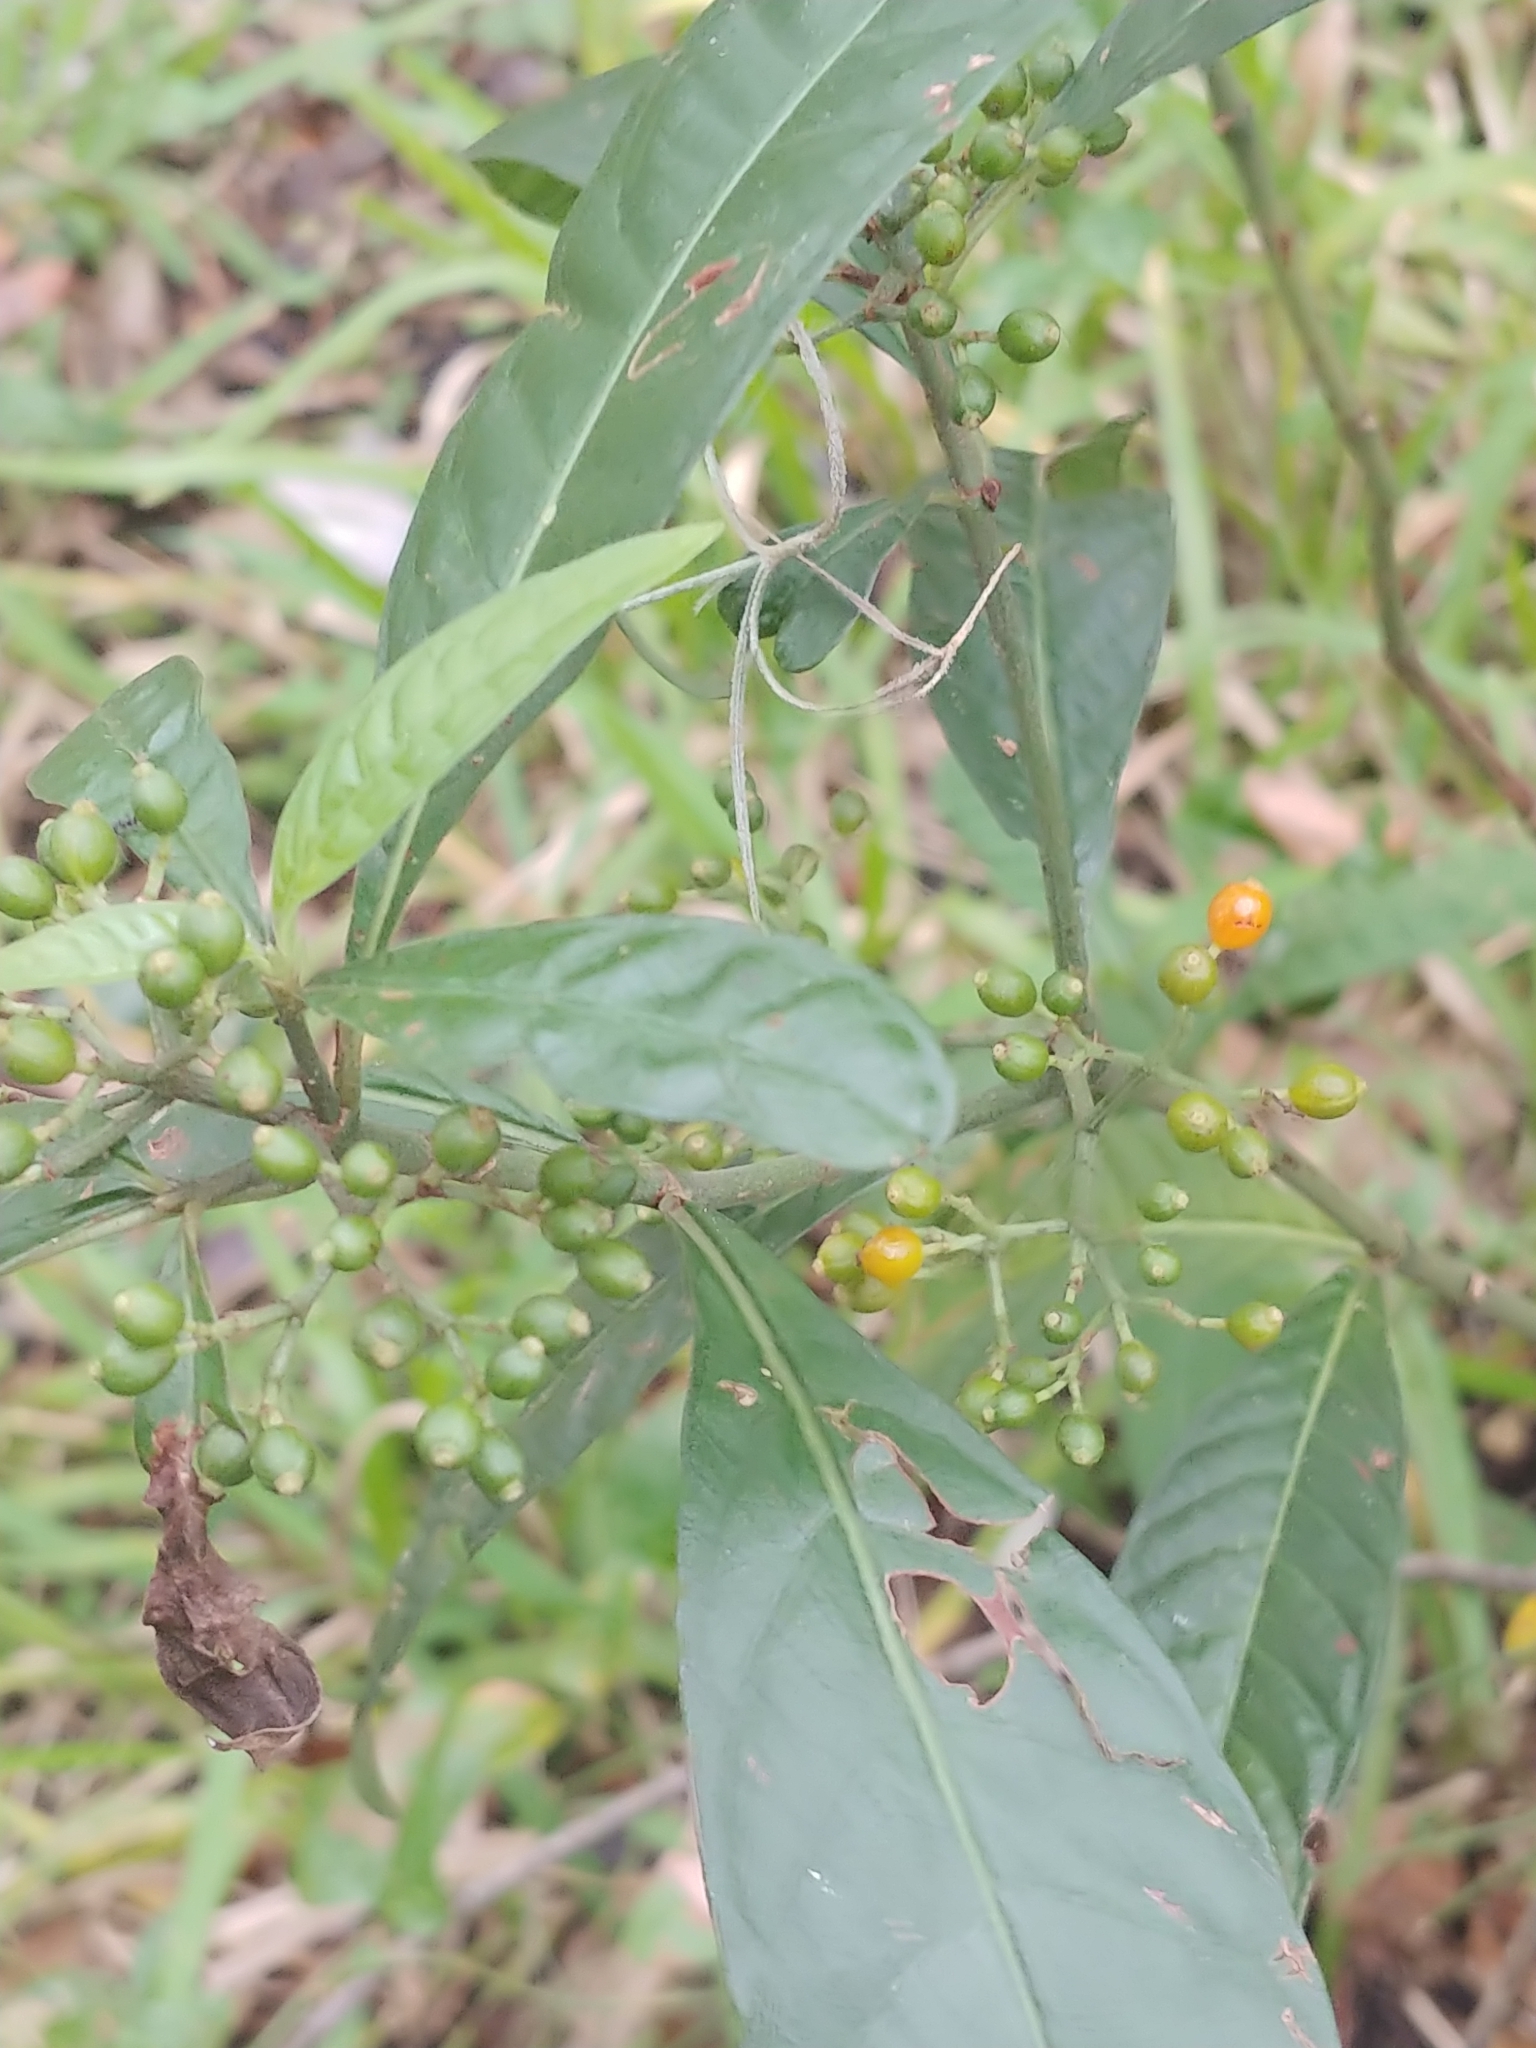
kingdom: Plantae
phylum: Tracheophyta
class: Magnoliopsida
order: Gentianales
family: Rubiaceae
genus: Psychotria
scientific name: Psychotria tenuifolia
